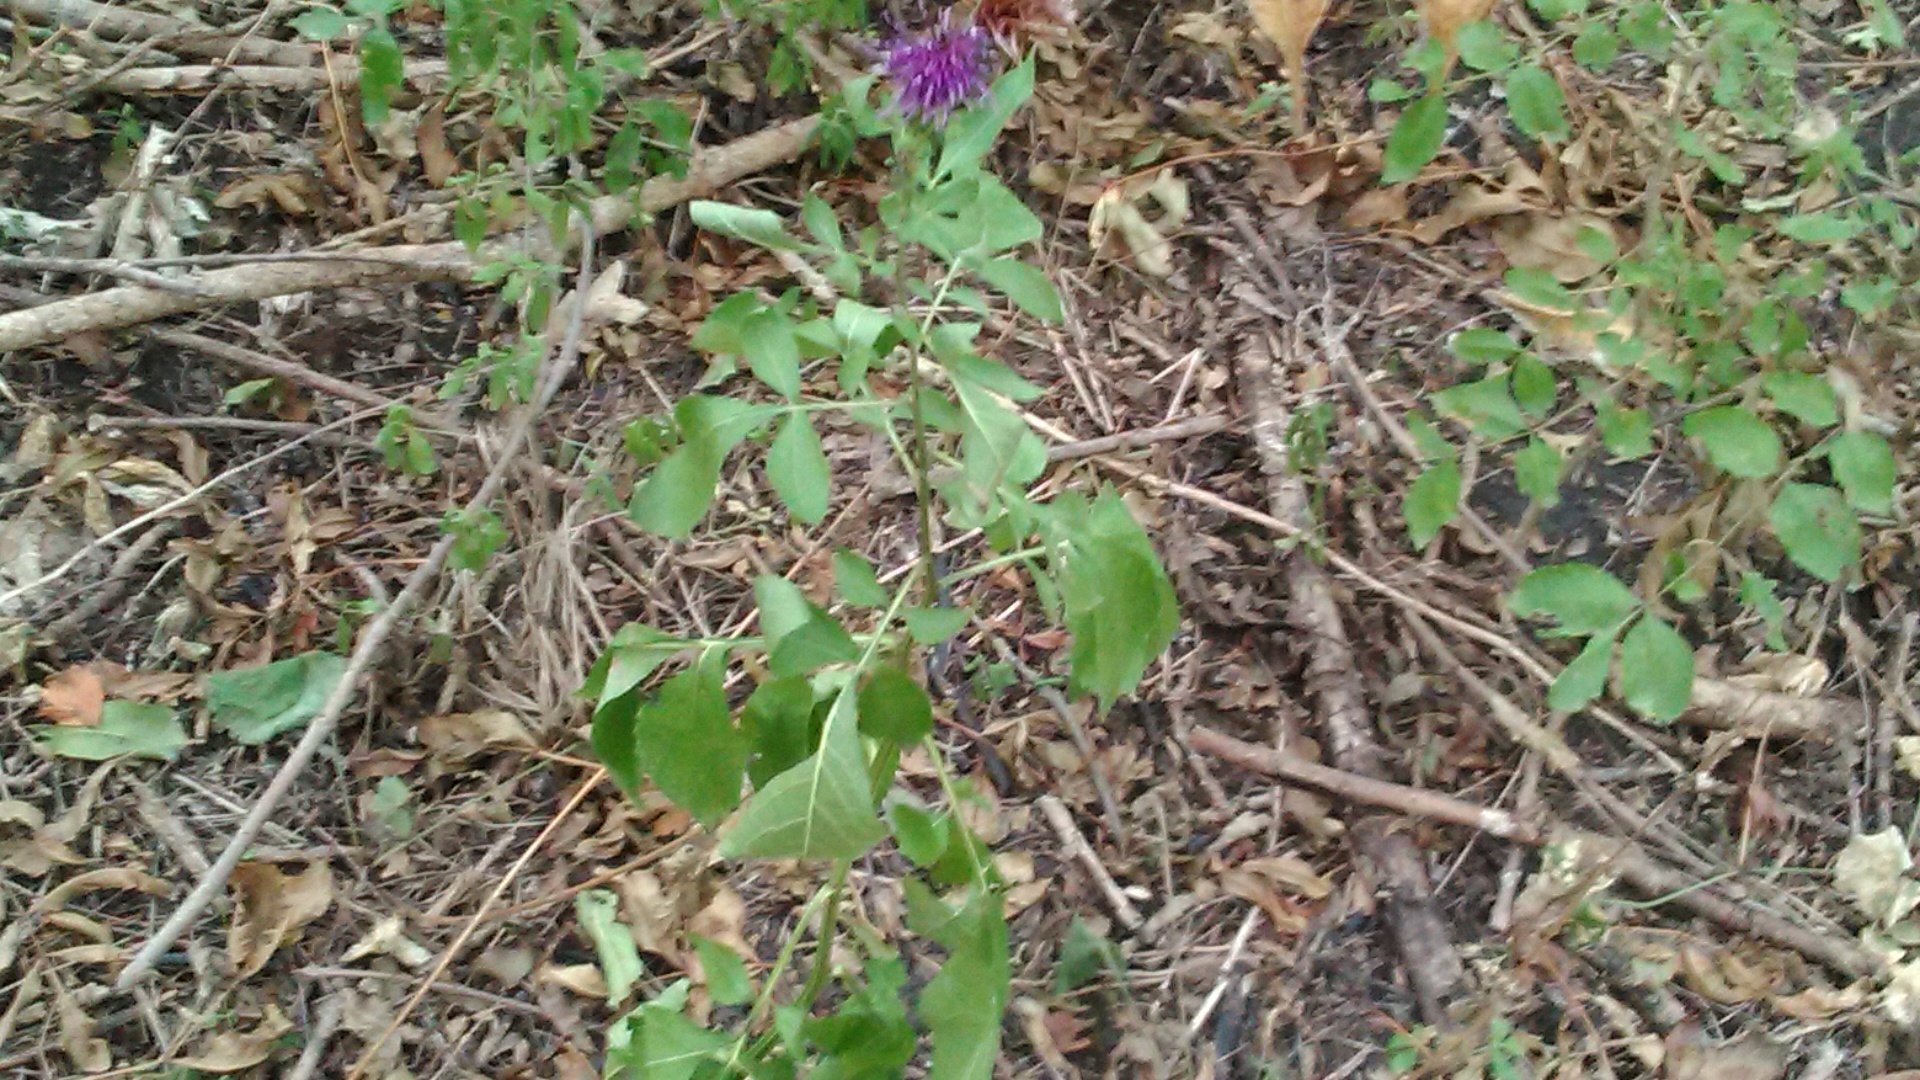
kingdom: Plantae
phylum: Tracheophyta
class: Magnoliopsida
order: Asterales
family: Asteraceae
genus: Klasea
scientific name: Klasea quinquefolia
